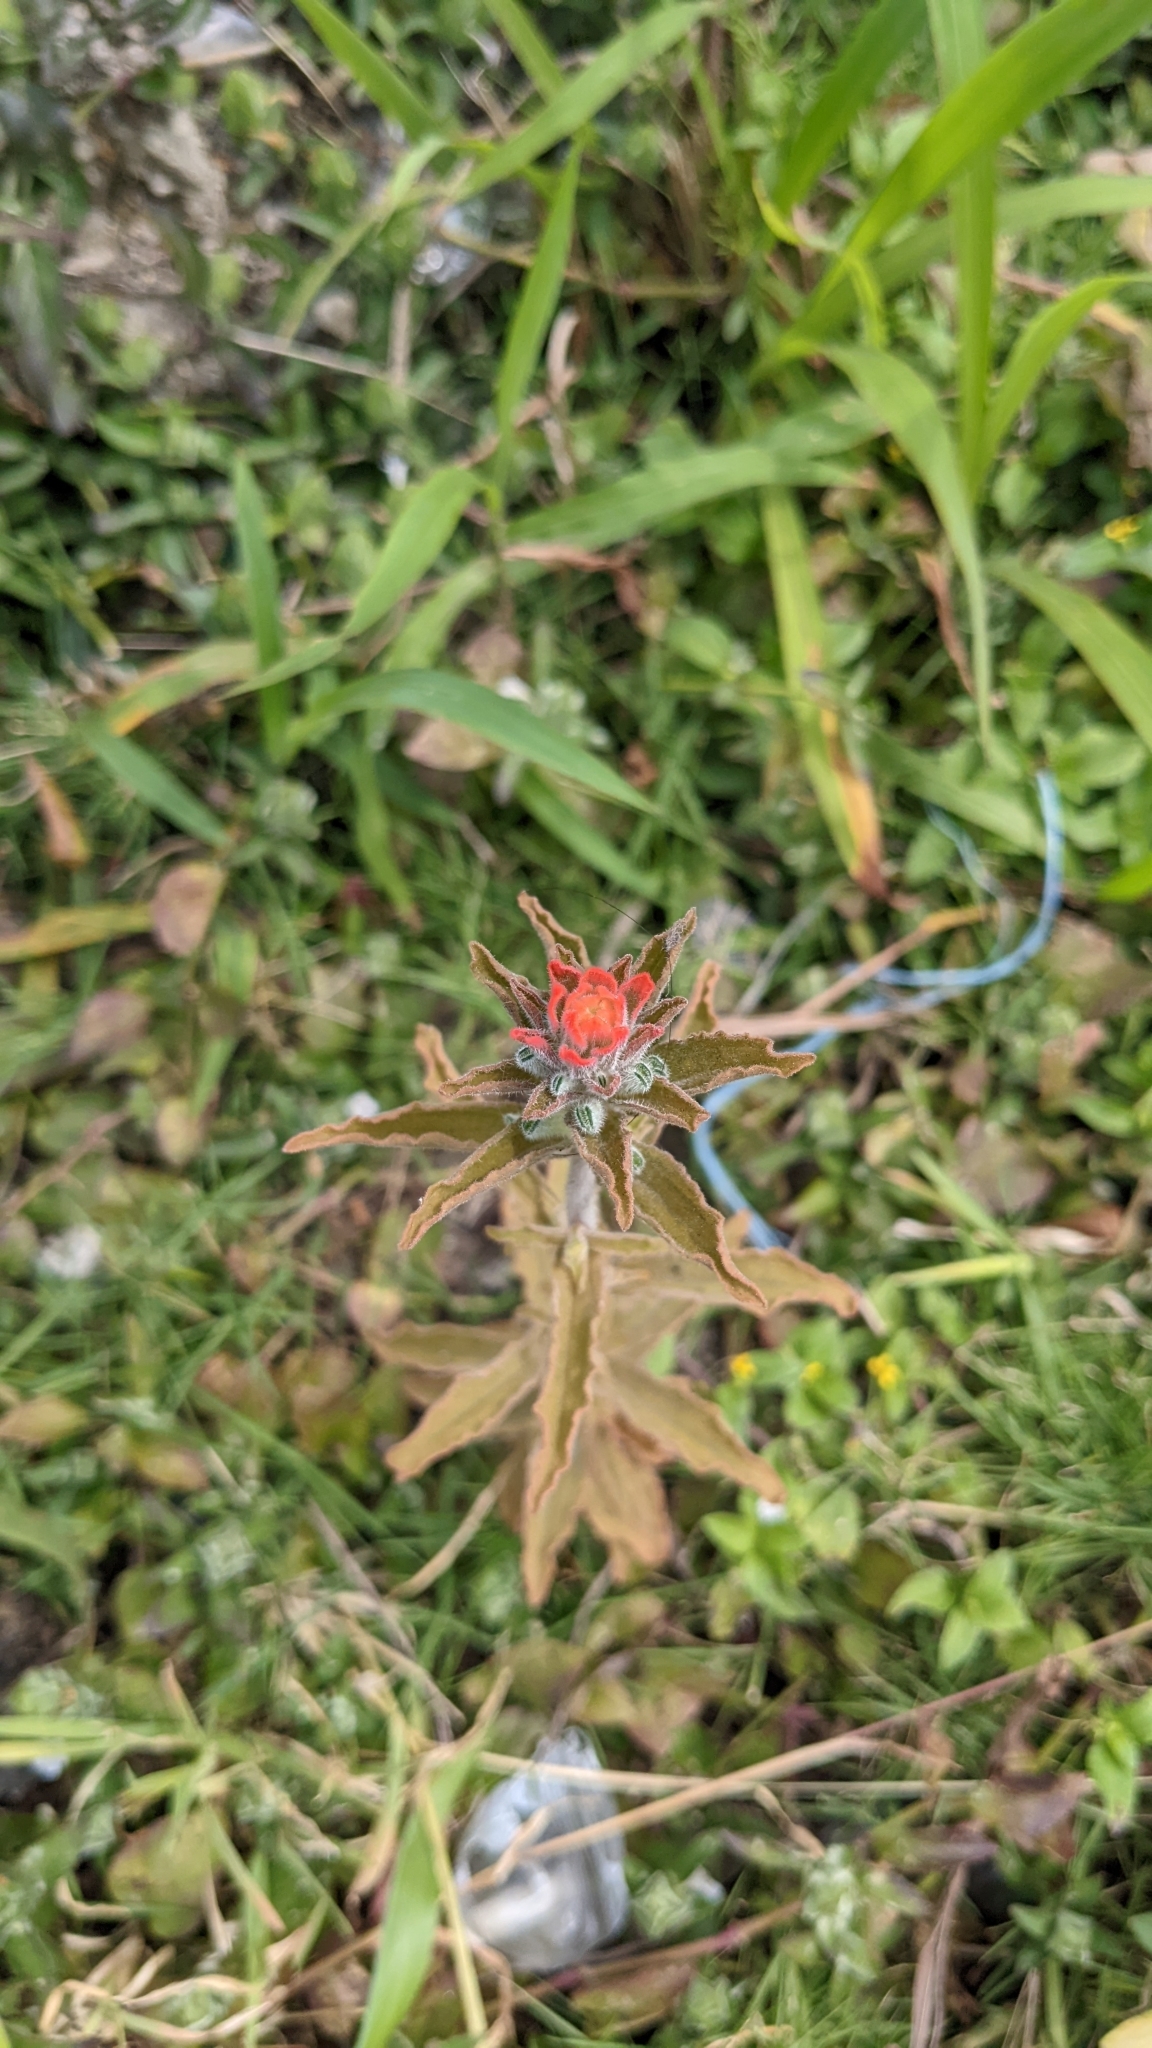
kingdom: Plantae
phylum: Tracheophyta
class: Magnoliopsida
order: Lamiales
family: Orobanchaceae
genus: Castilleja
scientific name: Castilleja arvensis
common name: Indian paintbrush
